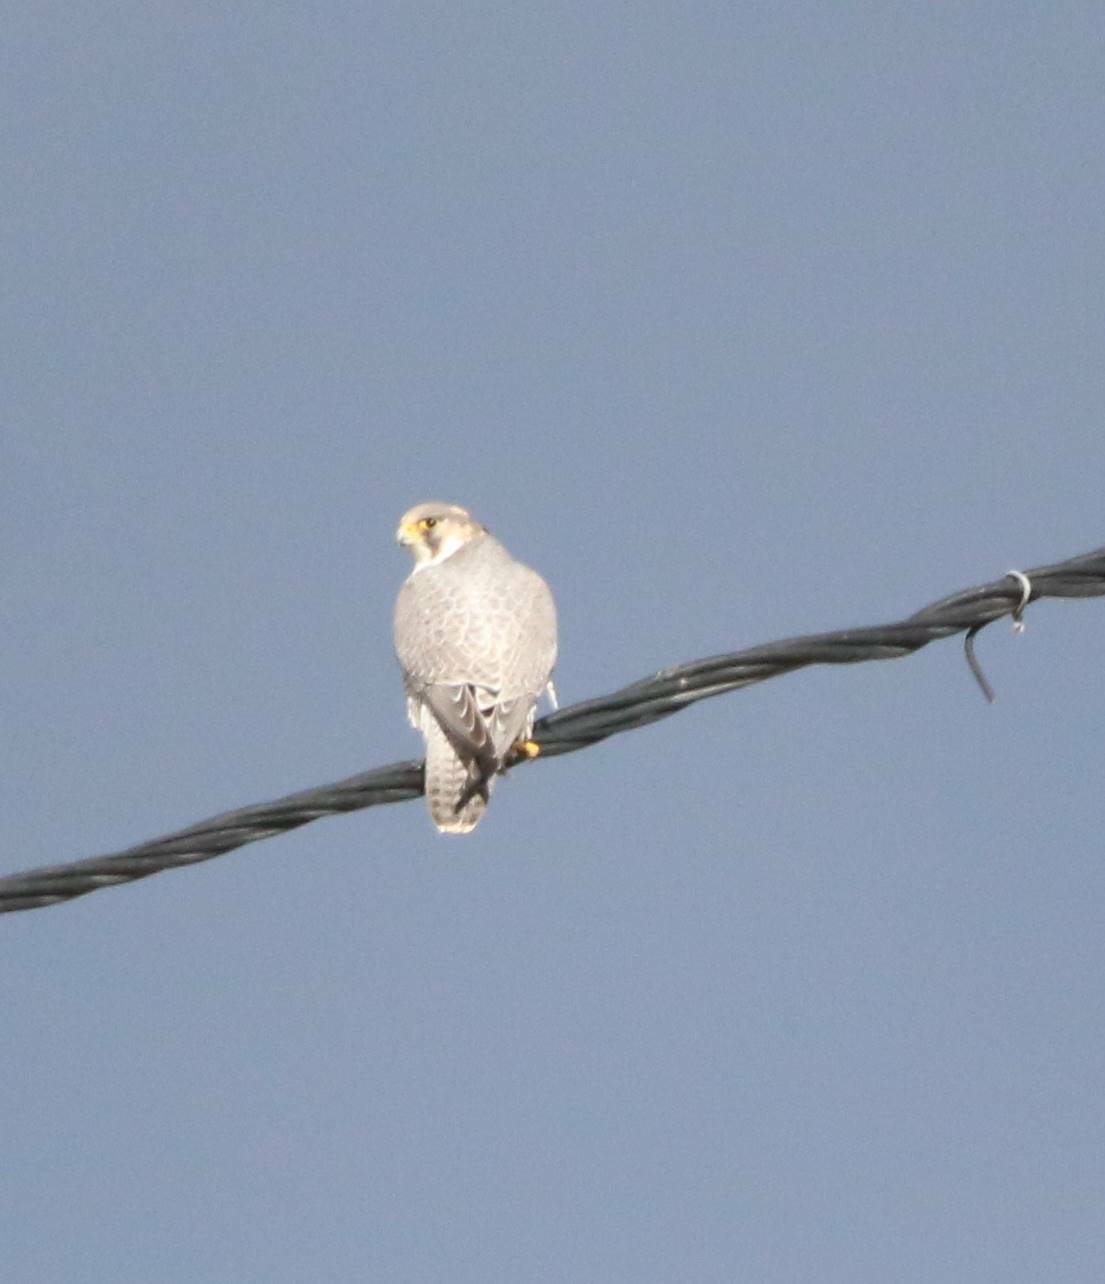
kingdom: Animalia
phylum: Chordata
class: Aves
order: Falconiformes
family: Falconidae
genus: Falco
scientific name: Falco peregrinus
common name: Peregrine falcon
